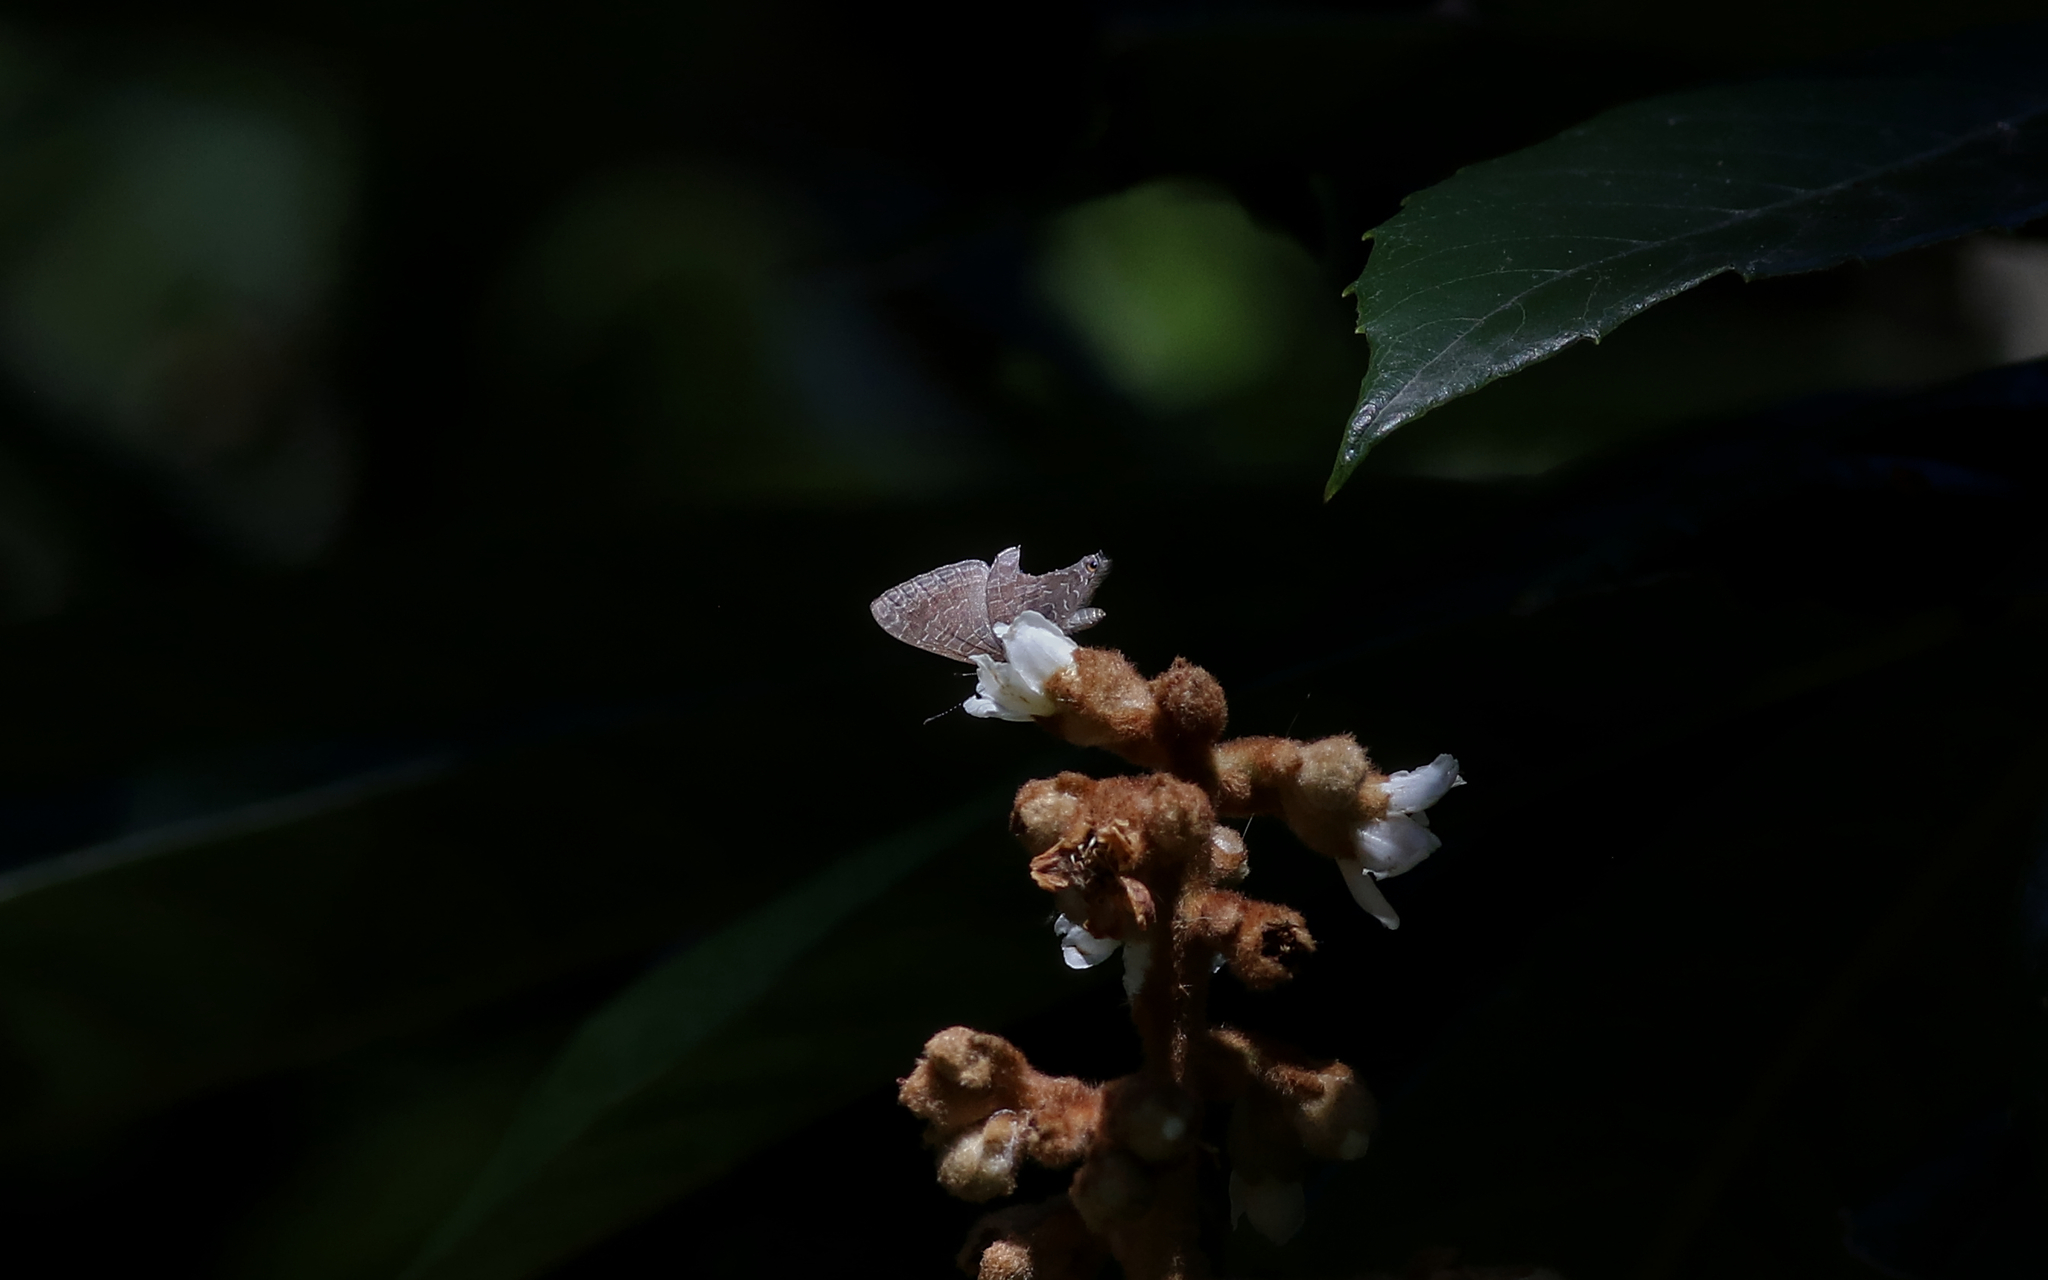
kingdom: Animalia
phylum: Arthropoda
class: Insecta
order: Lepidoptera
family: Lycaenidae
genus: Erysichton
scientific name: Erysichton lineata
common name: Hairy line blue
